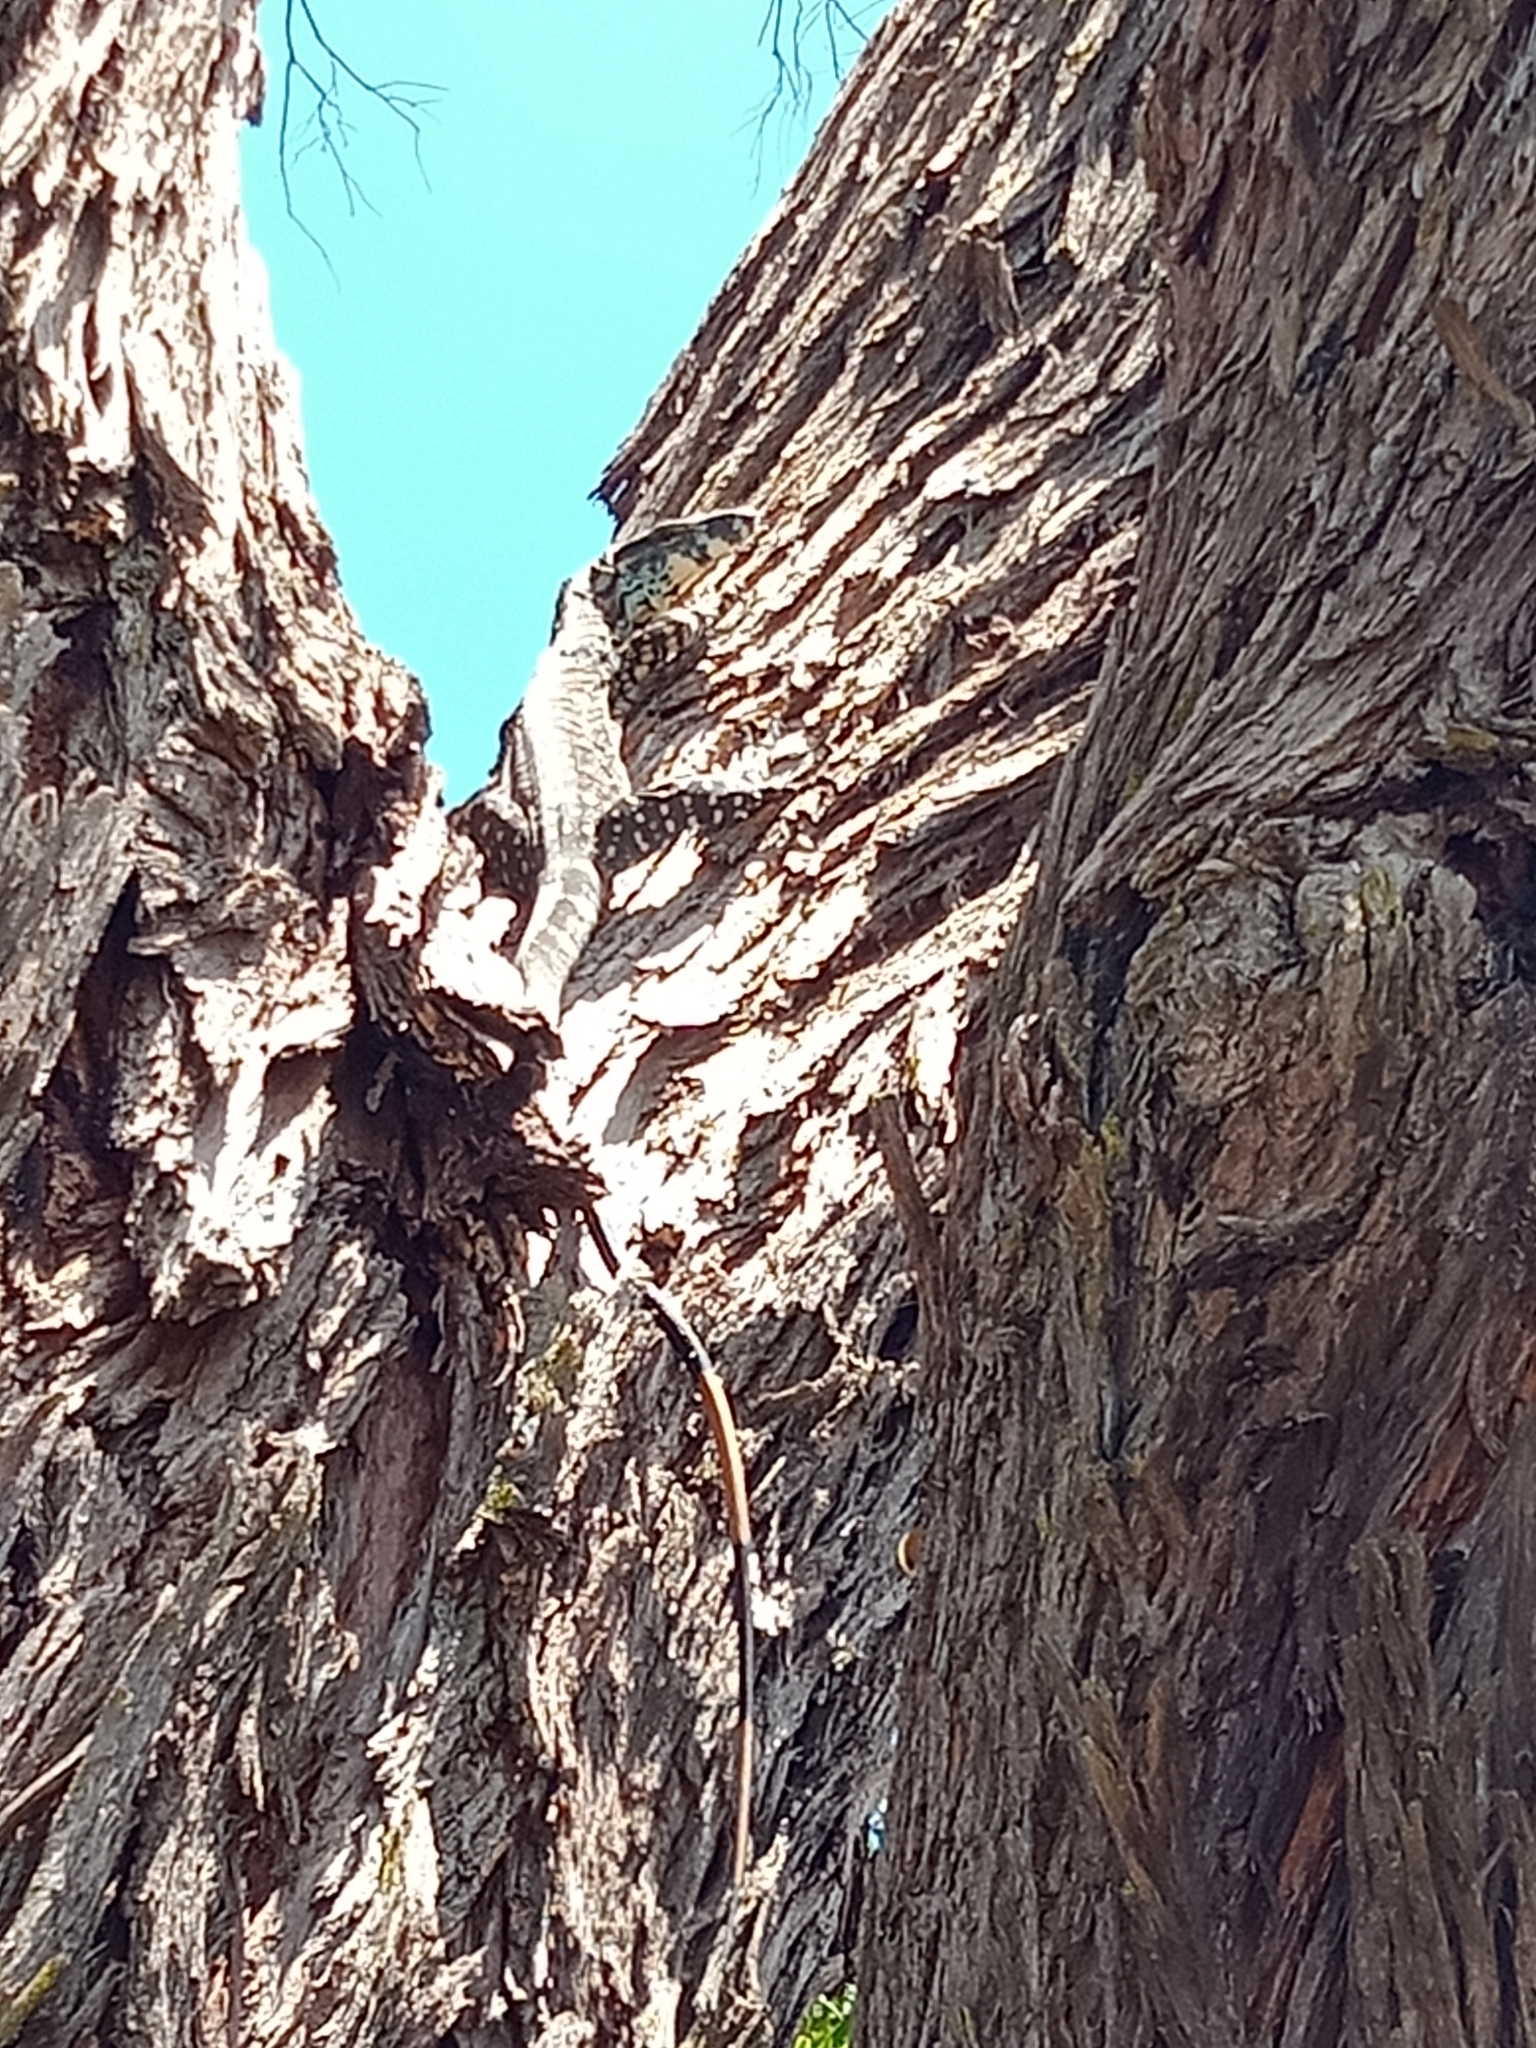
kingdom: Animalia
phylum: Chordata
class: Squamata
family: Varanidae
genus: Varanus
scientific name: Varanus varius
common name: Lace monitor
